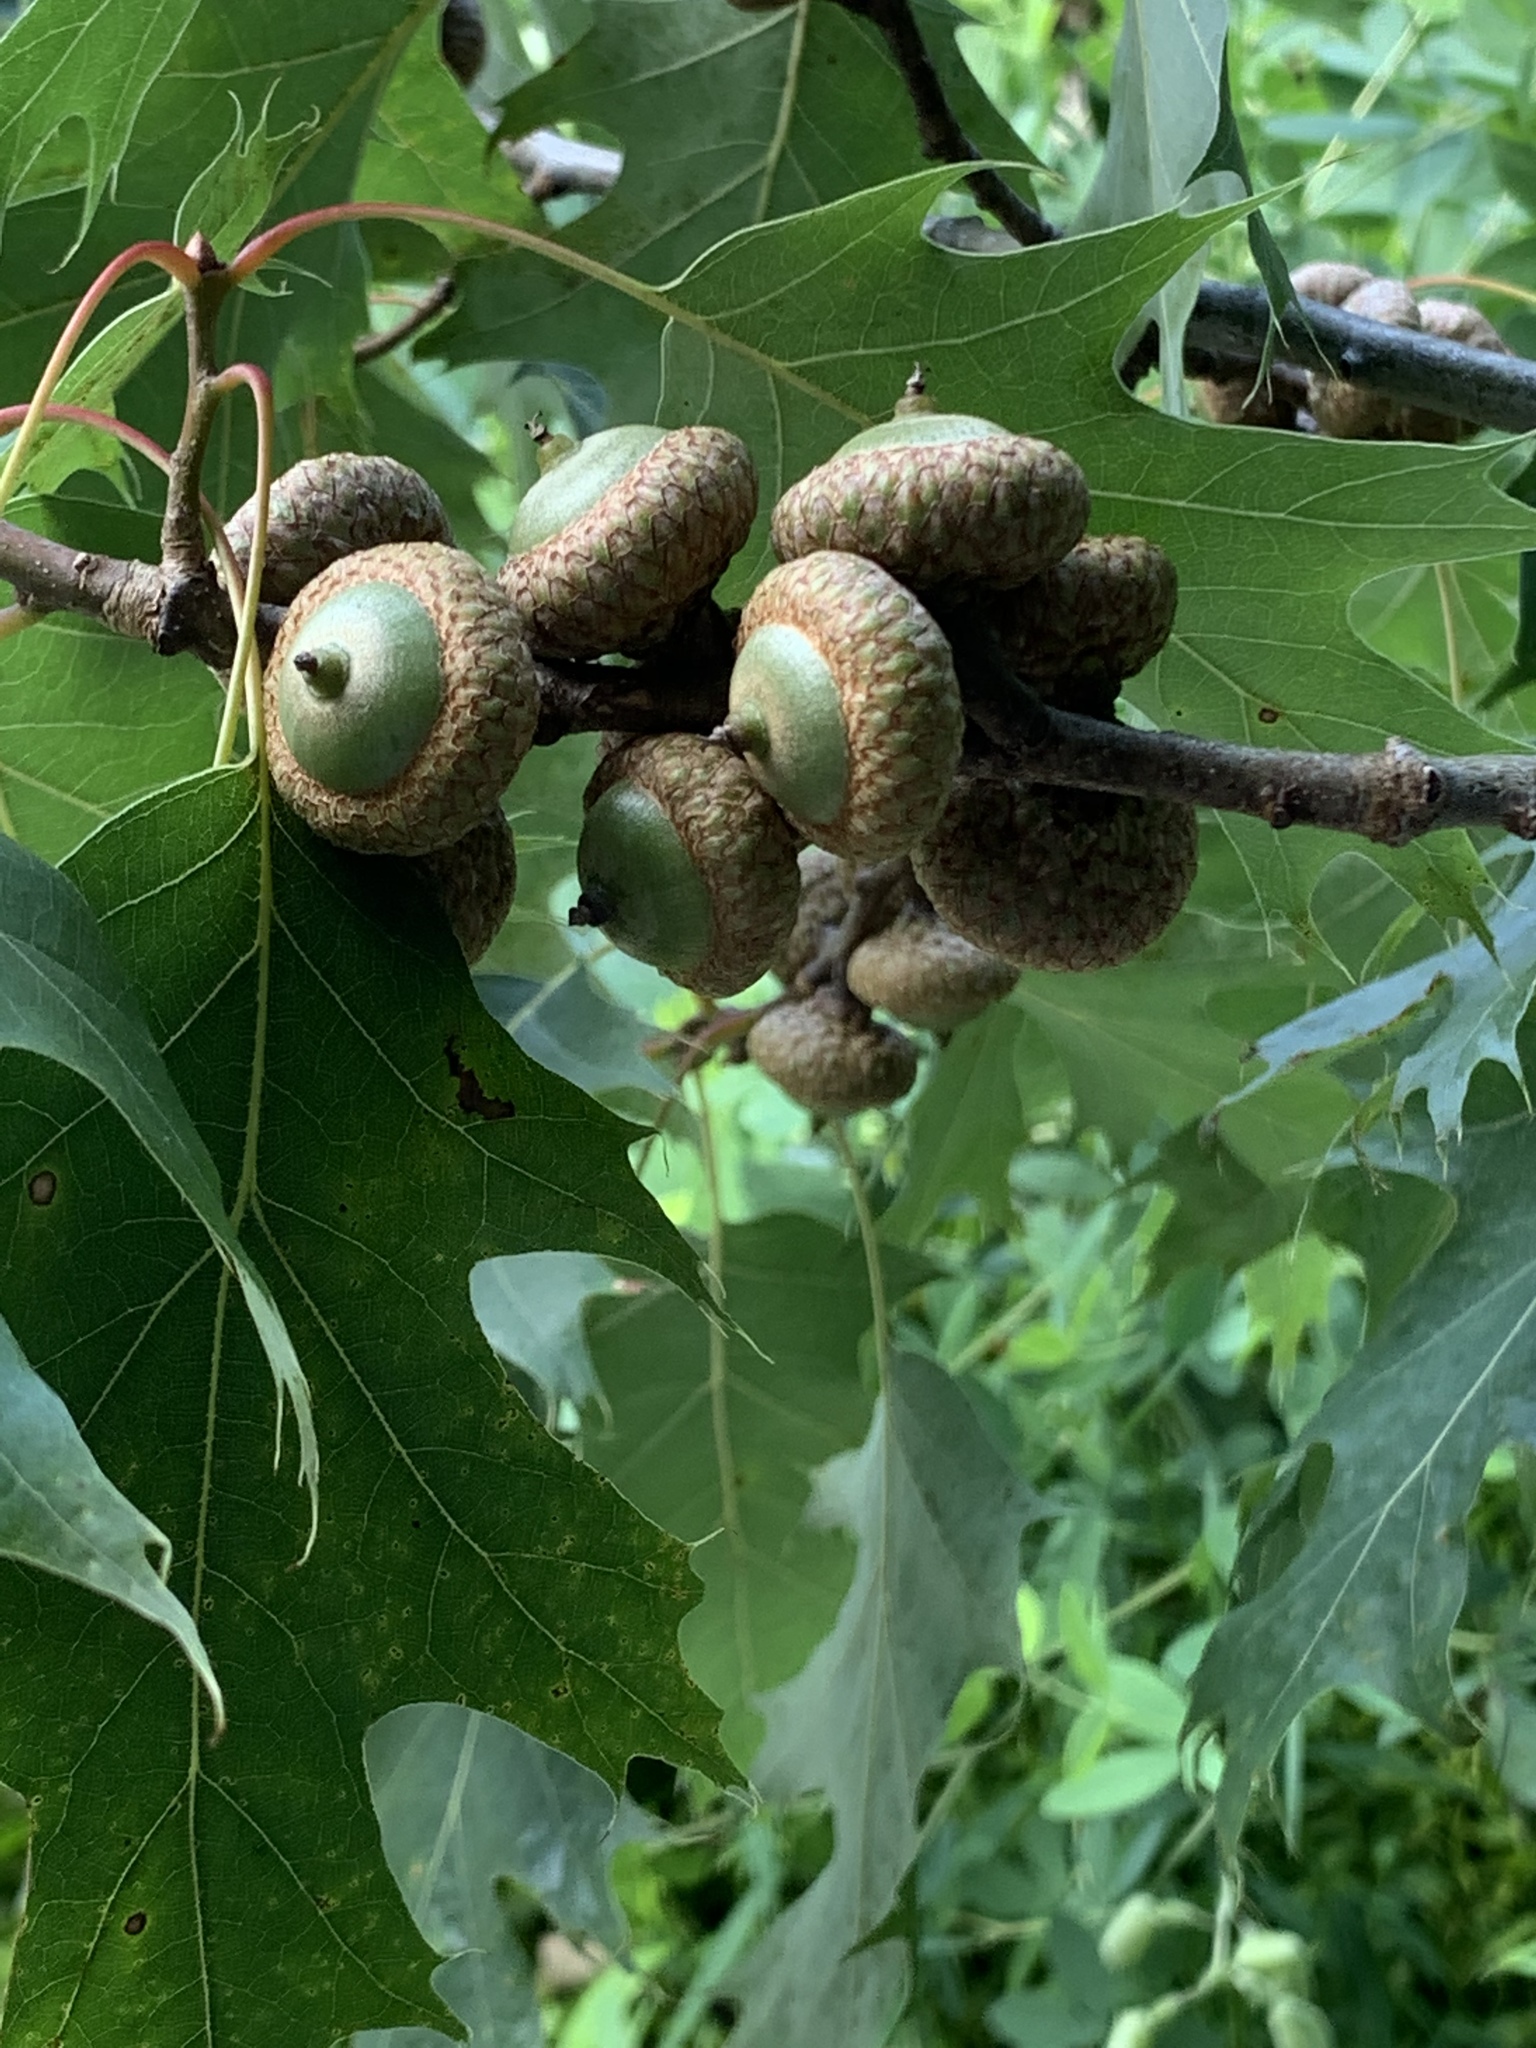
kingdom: Plantae
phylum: Tracheophyta
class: Magnoliopsida
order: Fagales
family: Fagaceae
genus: Quercus
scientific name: Quercus rubra
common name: Red oak
